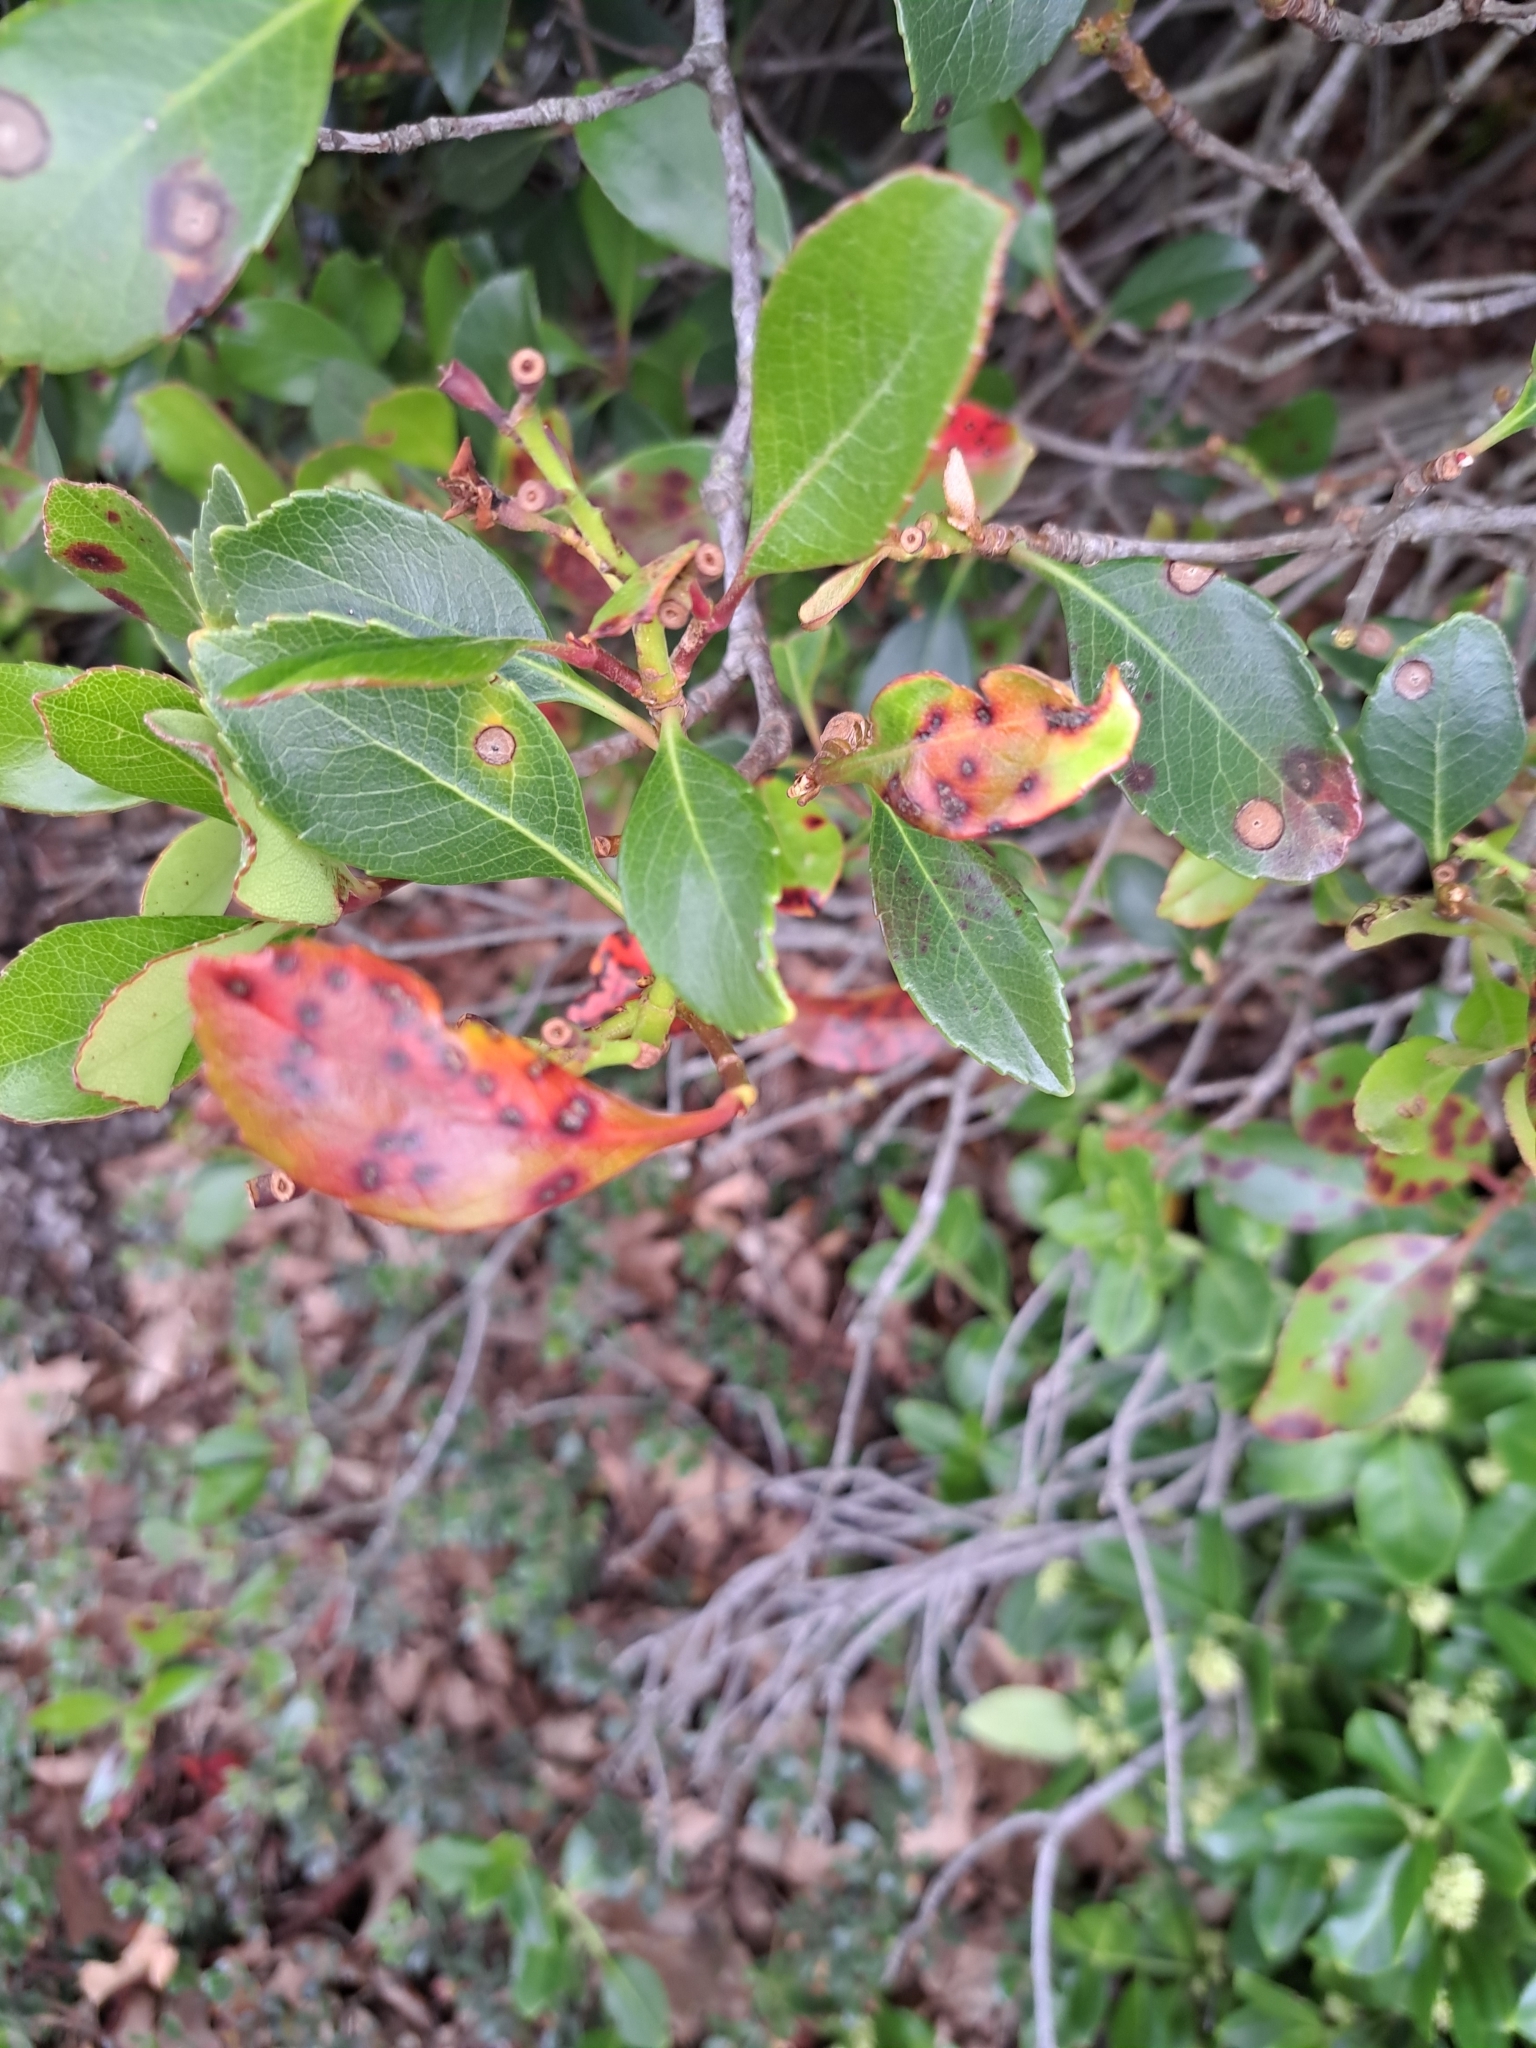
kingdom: Fungi
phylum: Ascomycota
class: Leotiomycetes
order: Helotiales
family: Drepanopezizaceae
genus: Diplocarpon
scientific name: Diplocarpon mespili
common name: Quince leaf blight
